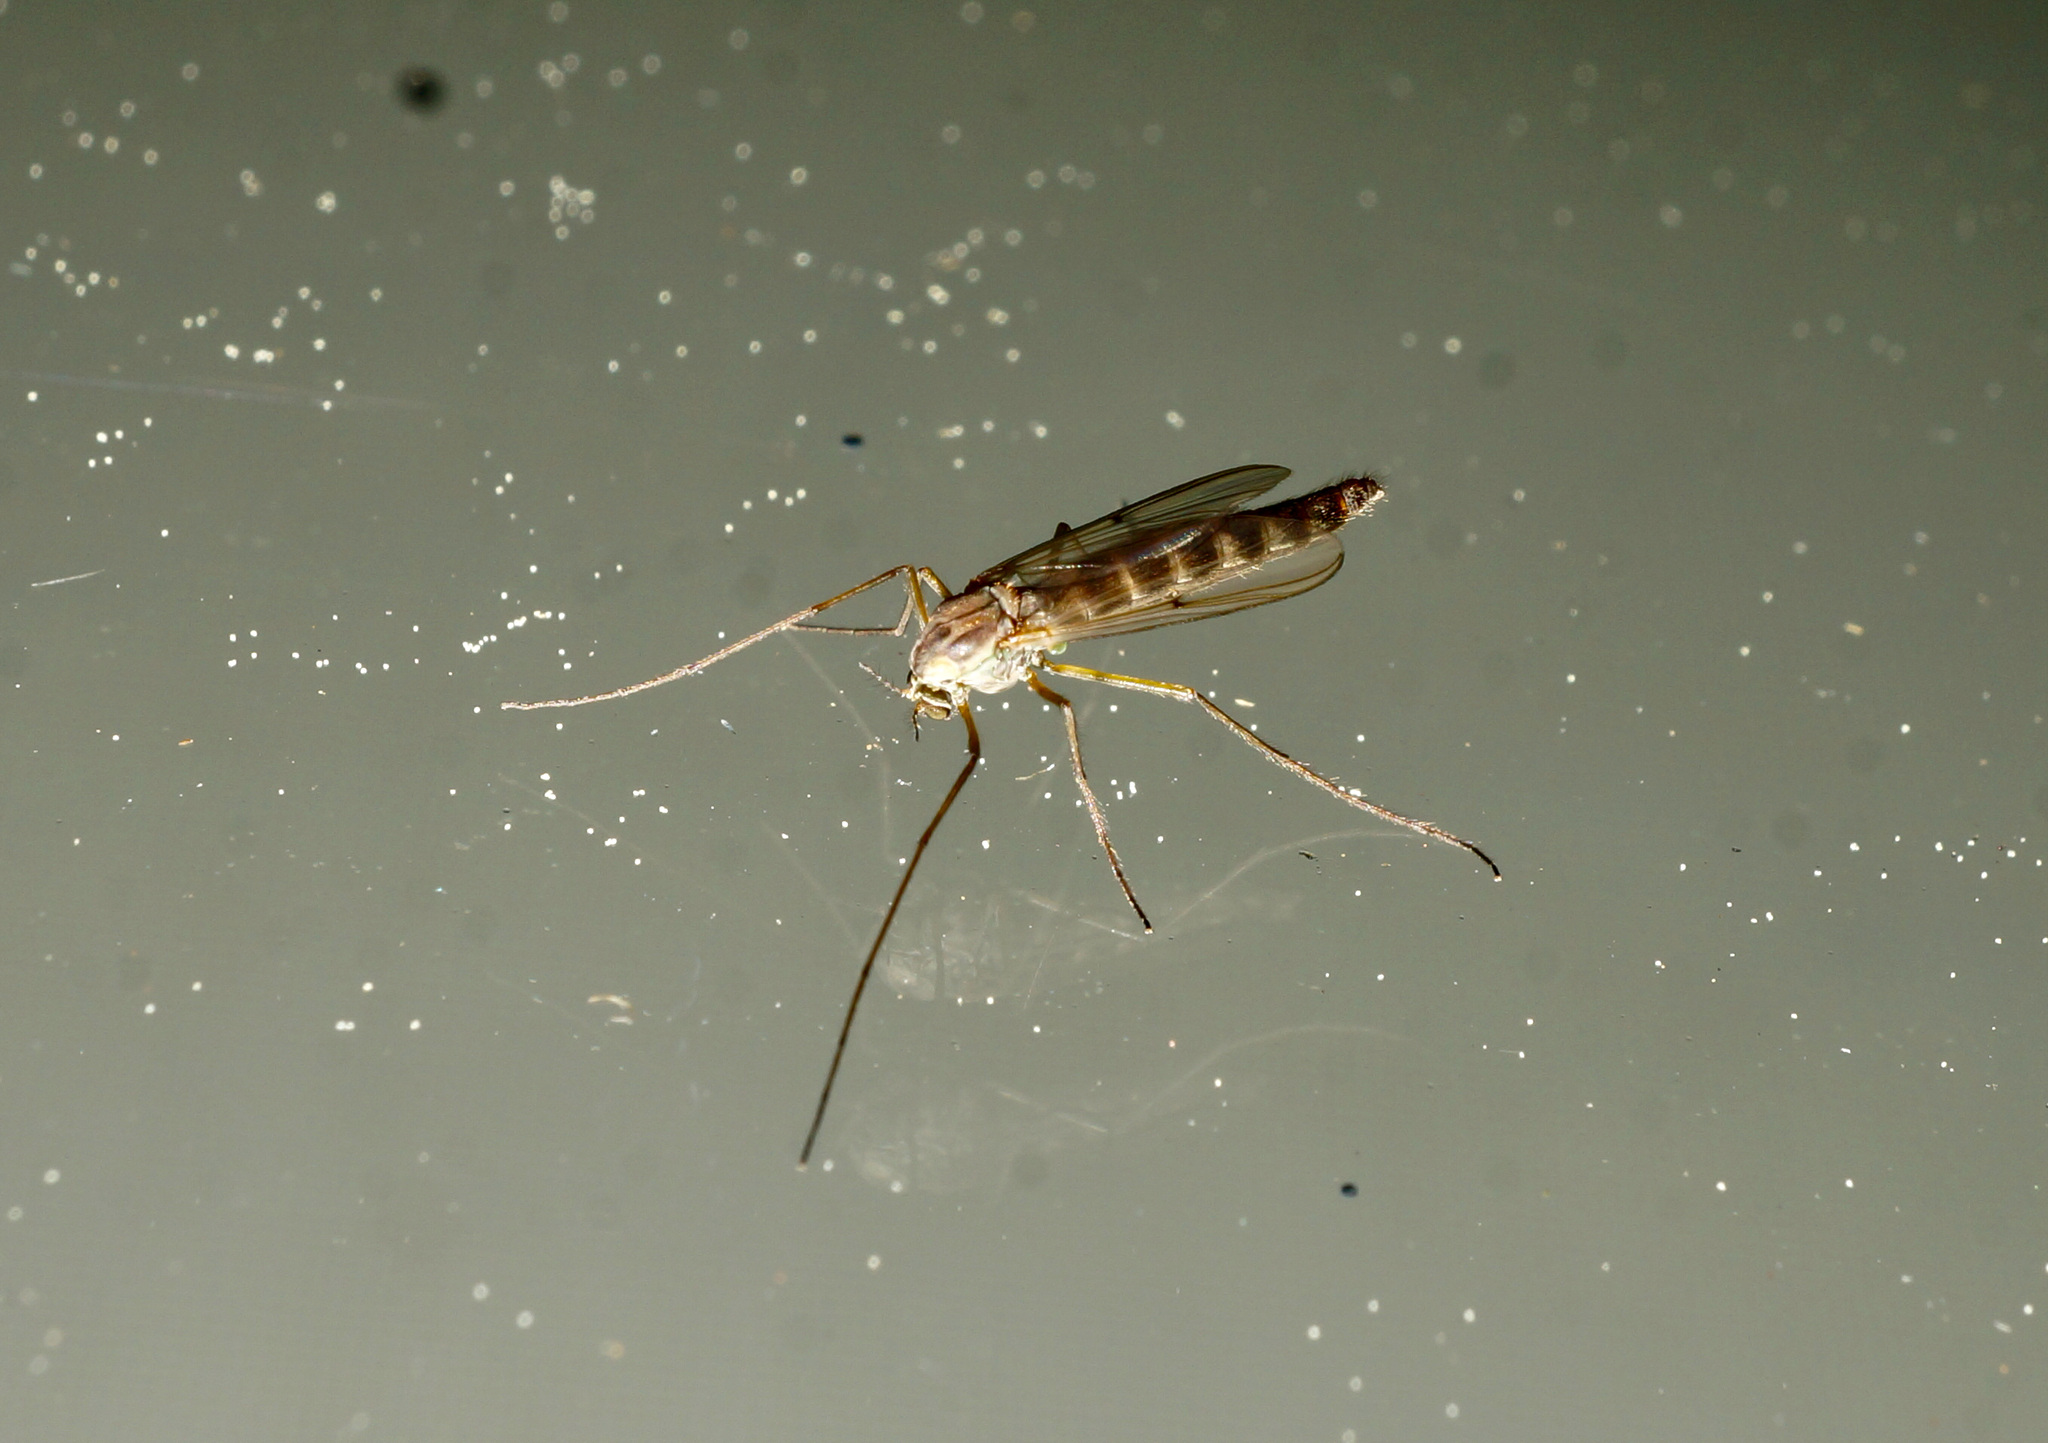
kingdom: Animalia
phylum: Arthropoda
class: Insecta
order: Diptera
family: Chironomidae
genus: Chironomus
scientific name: Chironomus zealandicus
